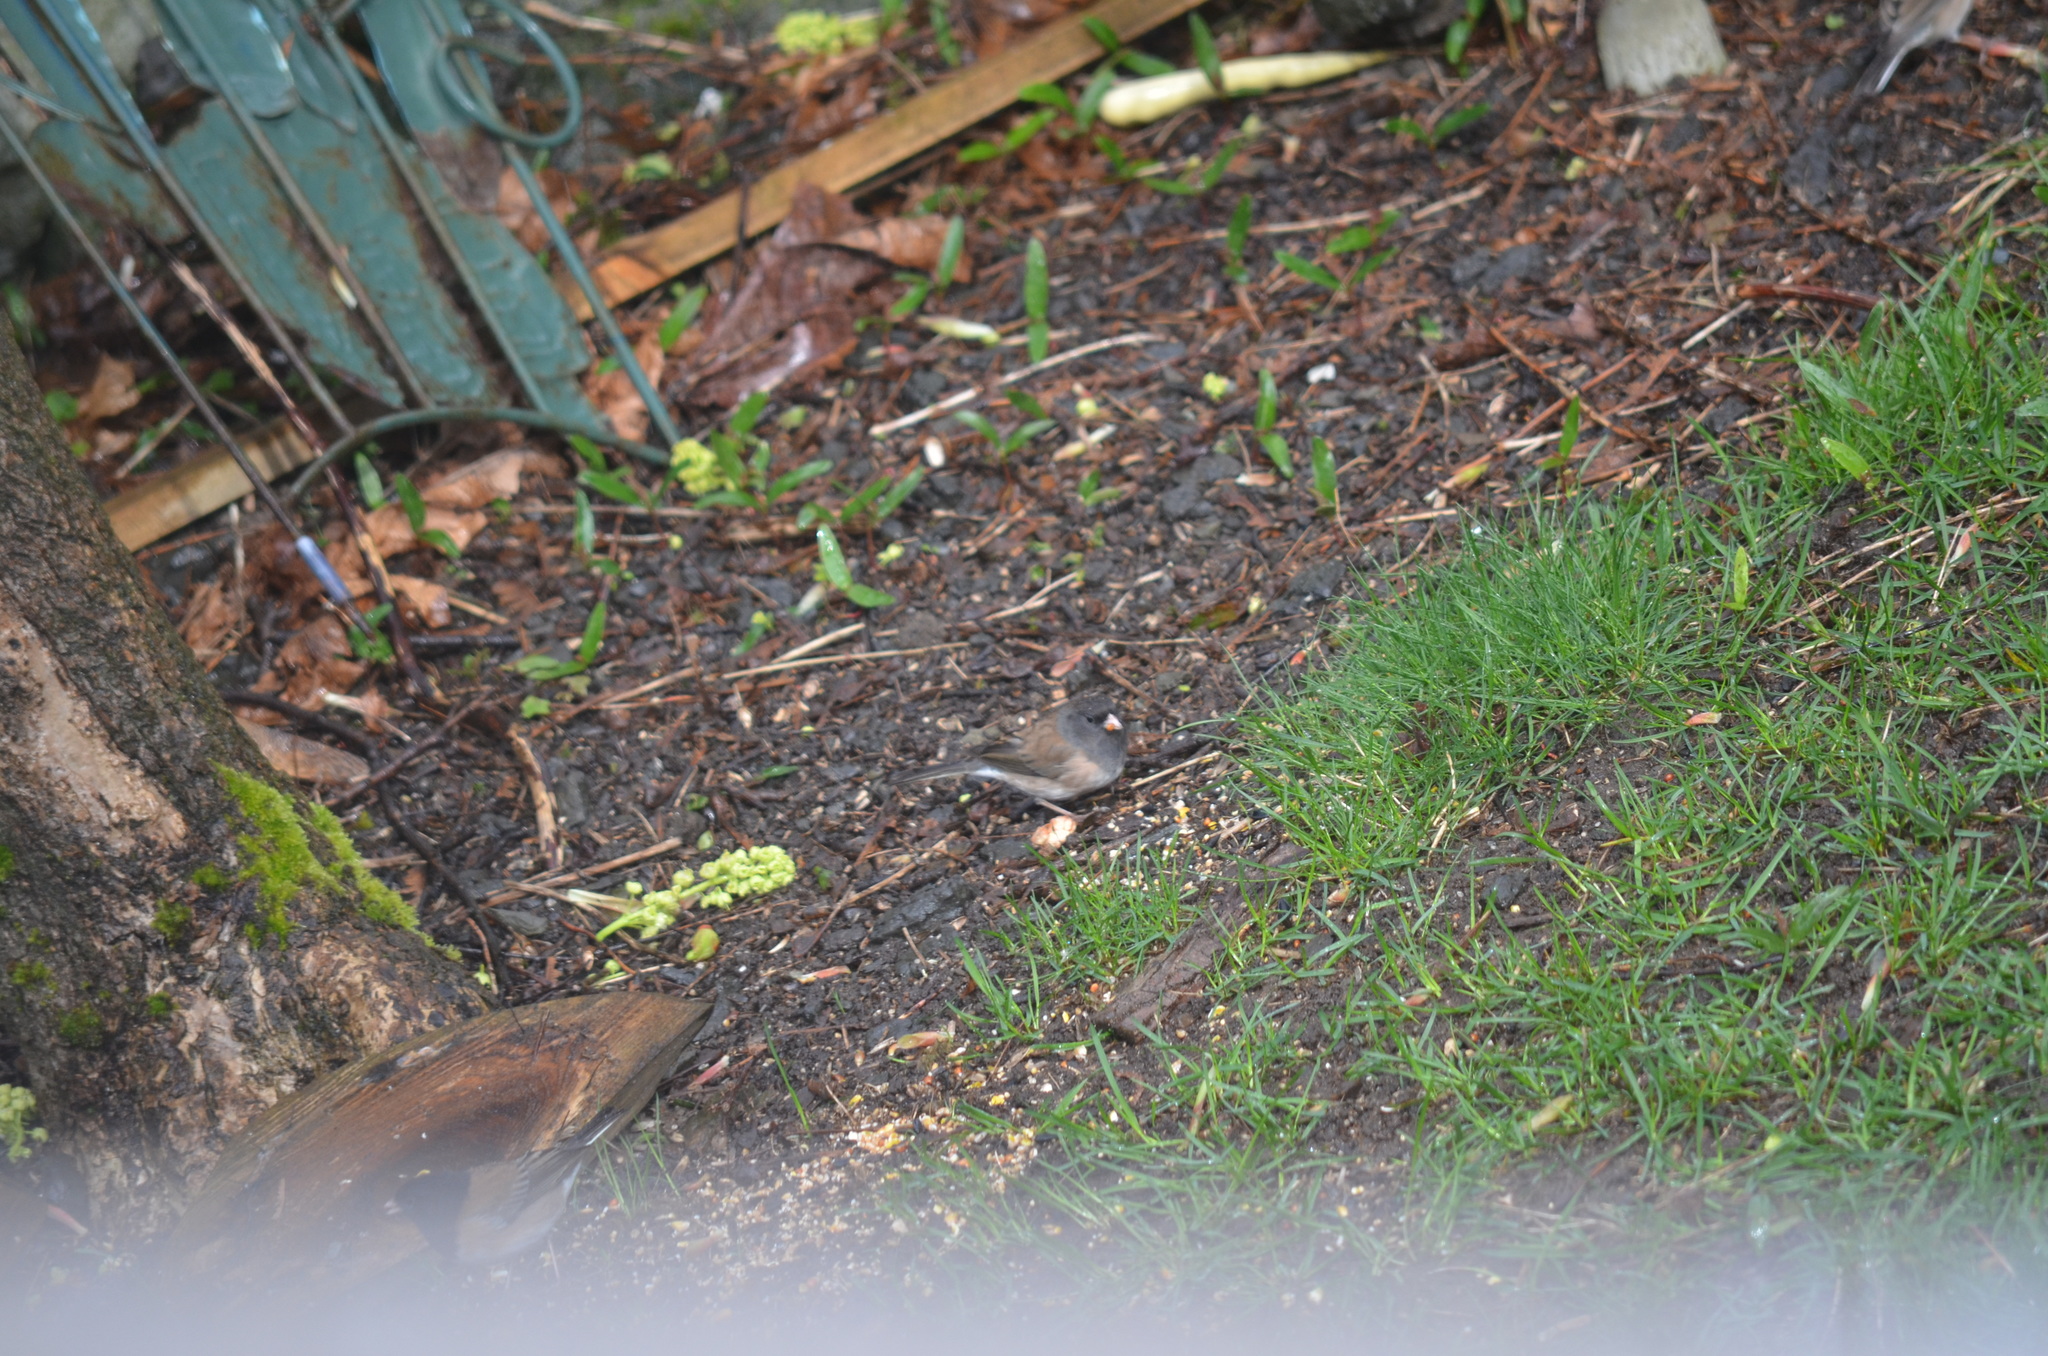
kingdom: Animalia
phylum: Chordata
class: Aves
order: Passeriformes
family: Passerellidae
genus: Junco
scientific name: Junco hyemalis
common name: Dark-eyed junco
